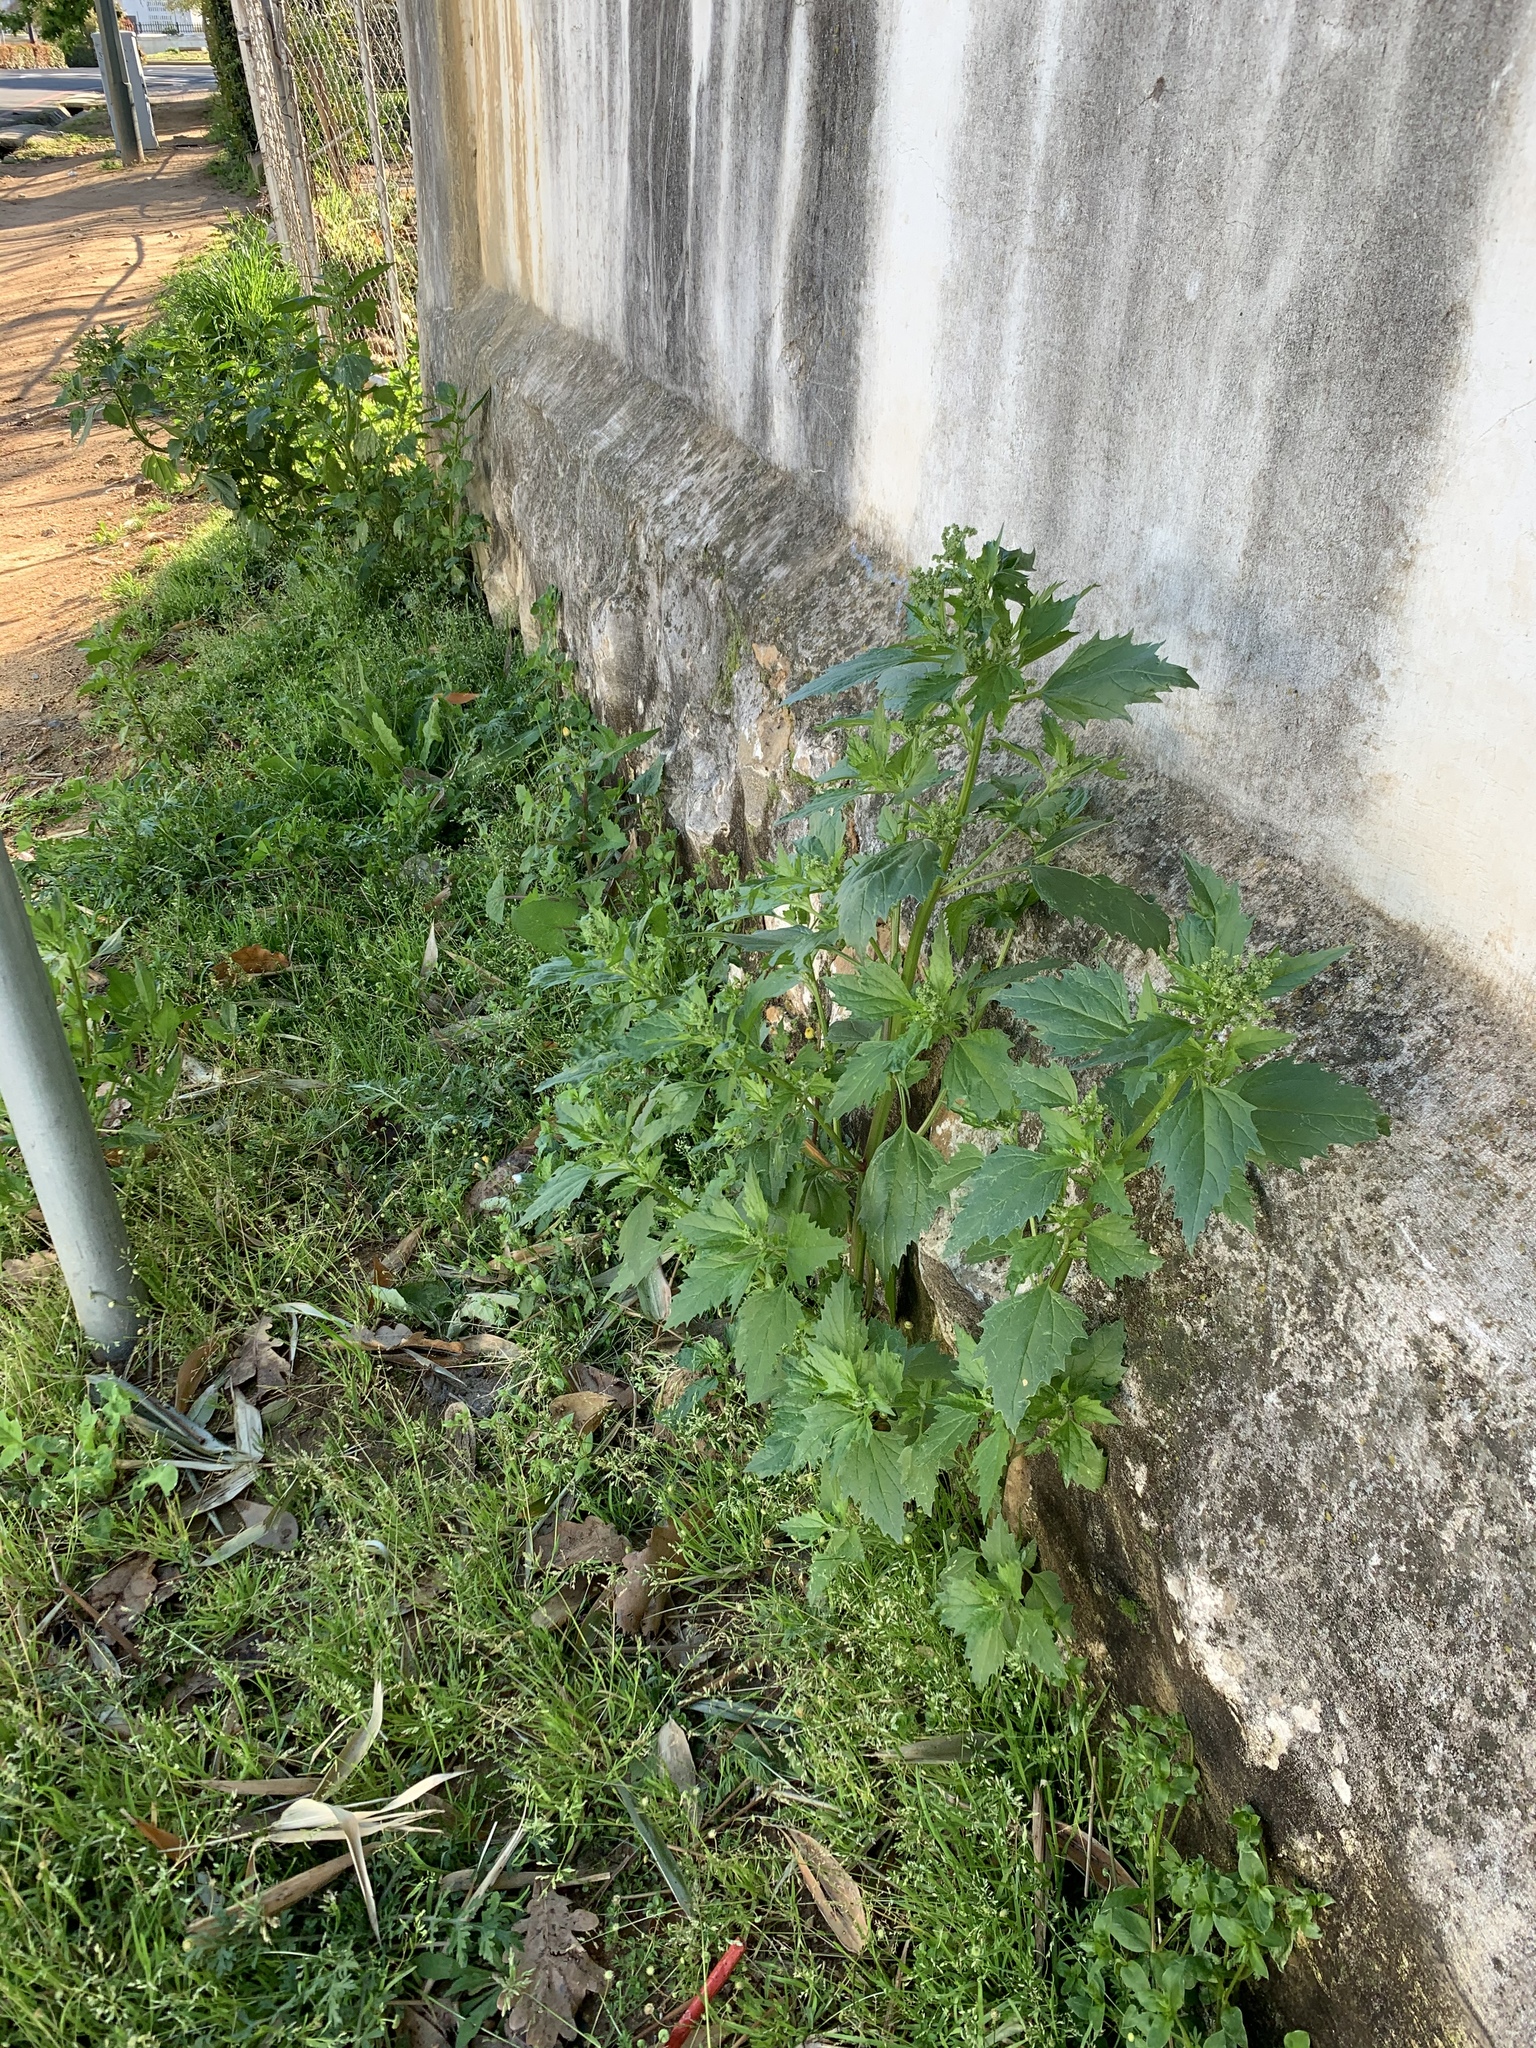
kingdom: Plantae
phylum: Tracheophyta
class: Magnoliopsida
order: Caryophyllales
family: Amaranthaceae
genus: Chenopodiastrum
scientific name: Chenopodiastrum murale
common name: Sowbane
